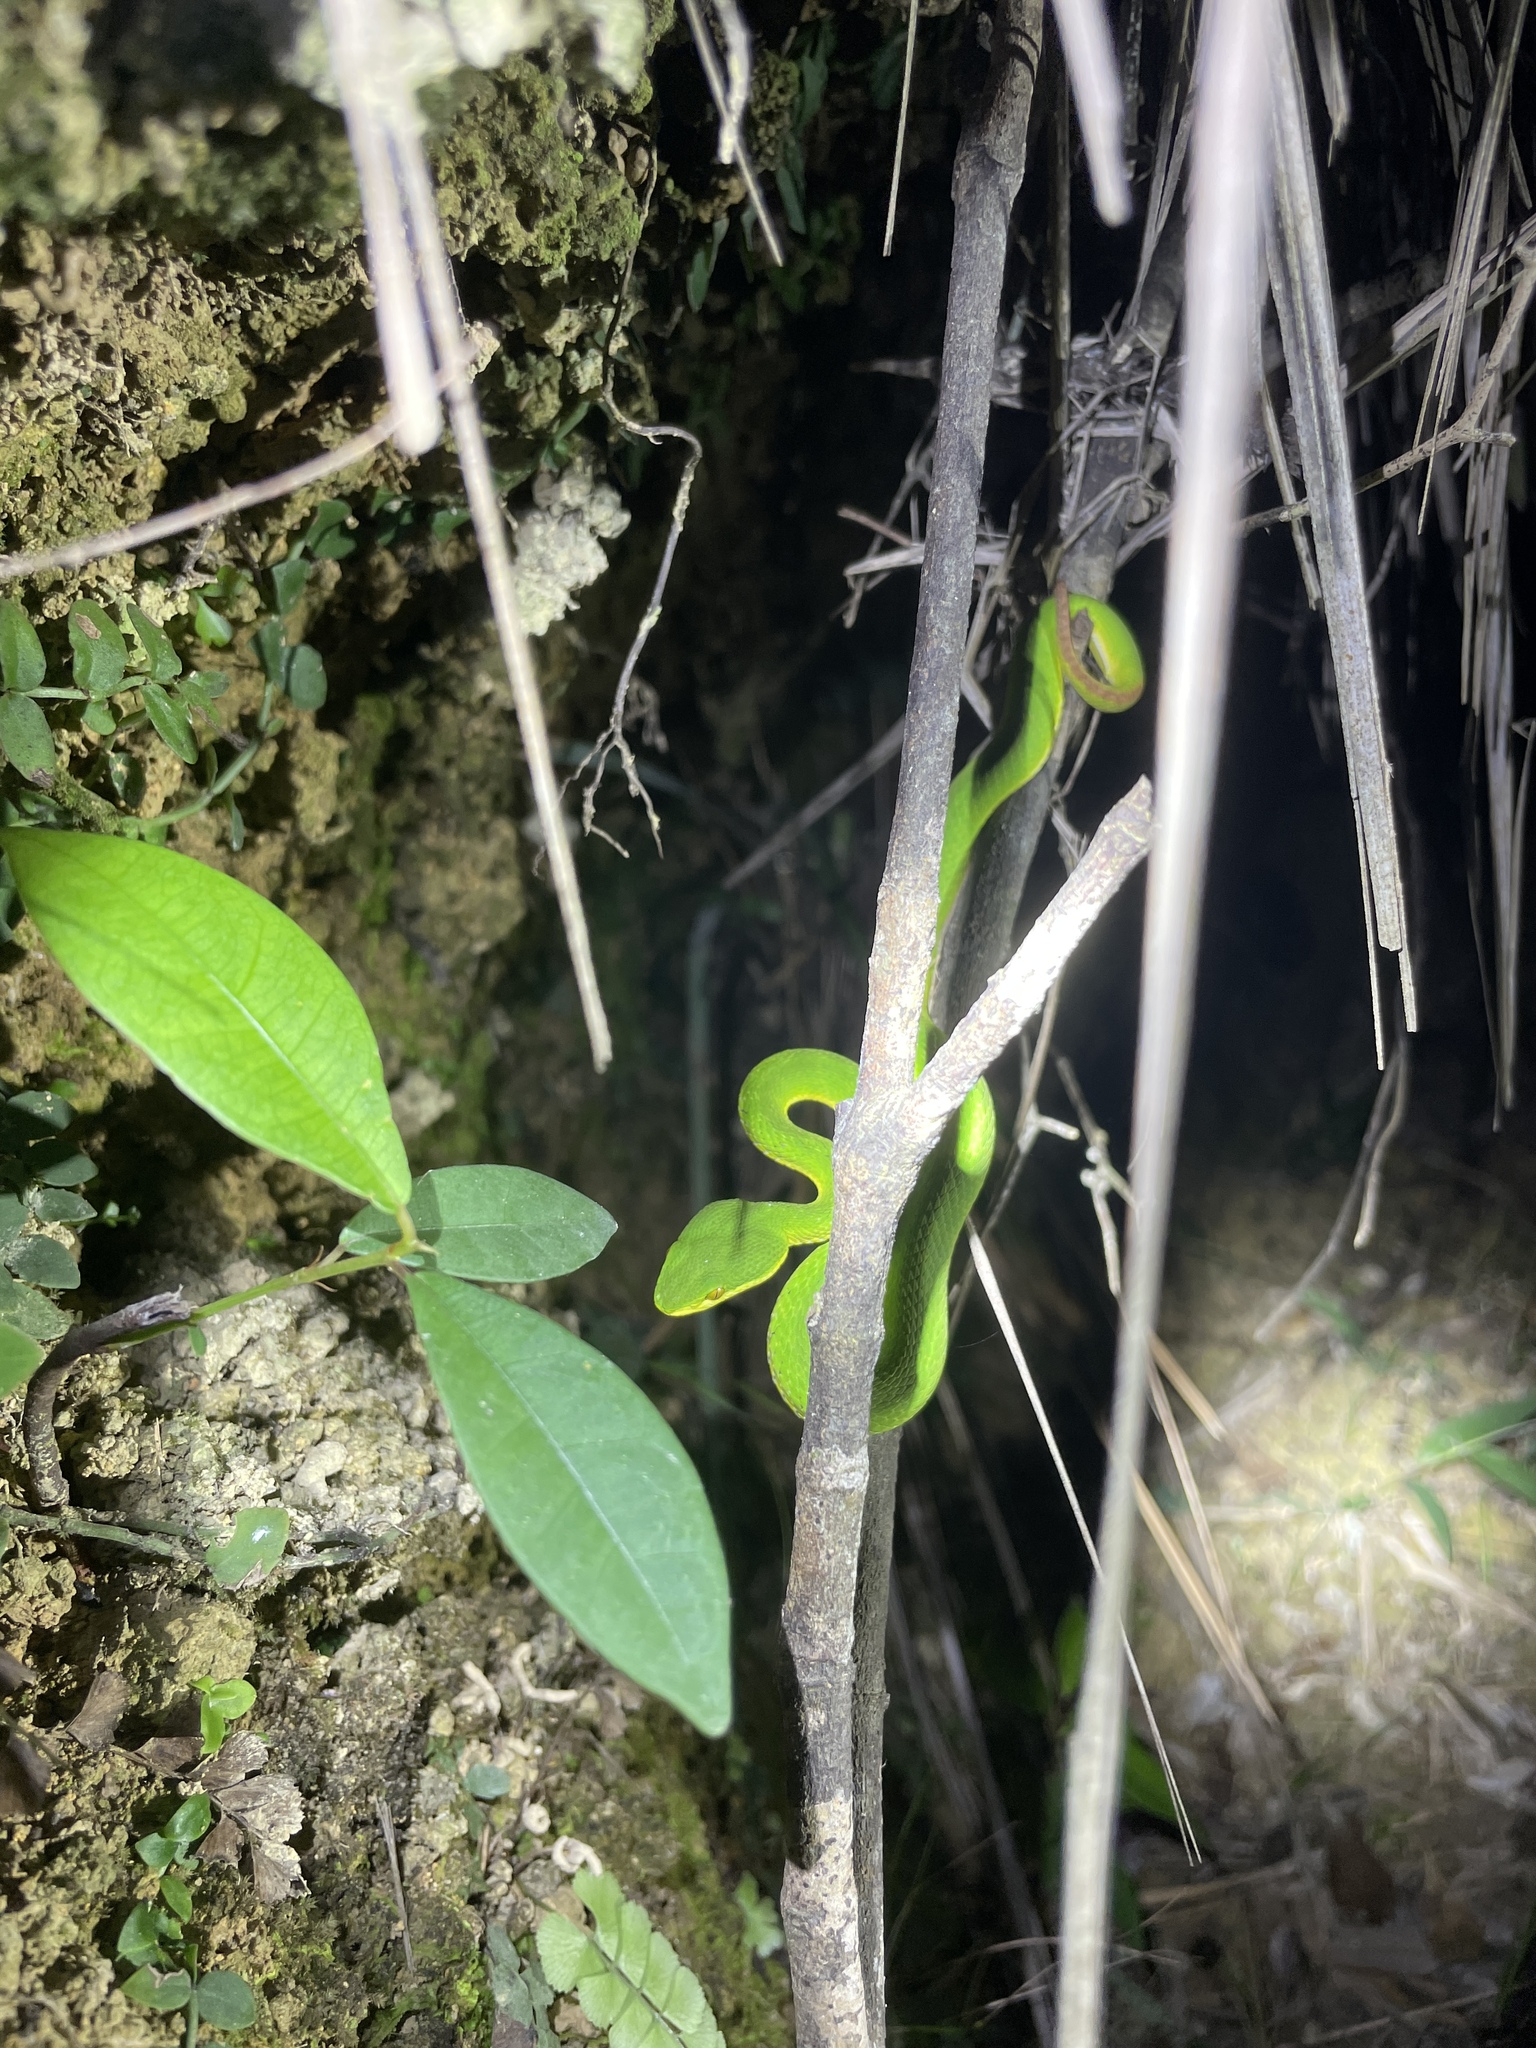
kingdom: Animalia
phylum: Chordata
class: Squamata
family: Viperidae
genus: Trimeresurus
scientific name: Trimeresurus albolabris
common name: White-lipped pitviper
